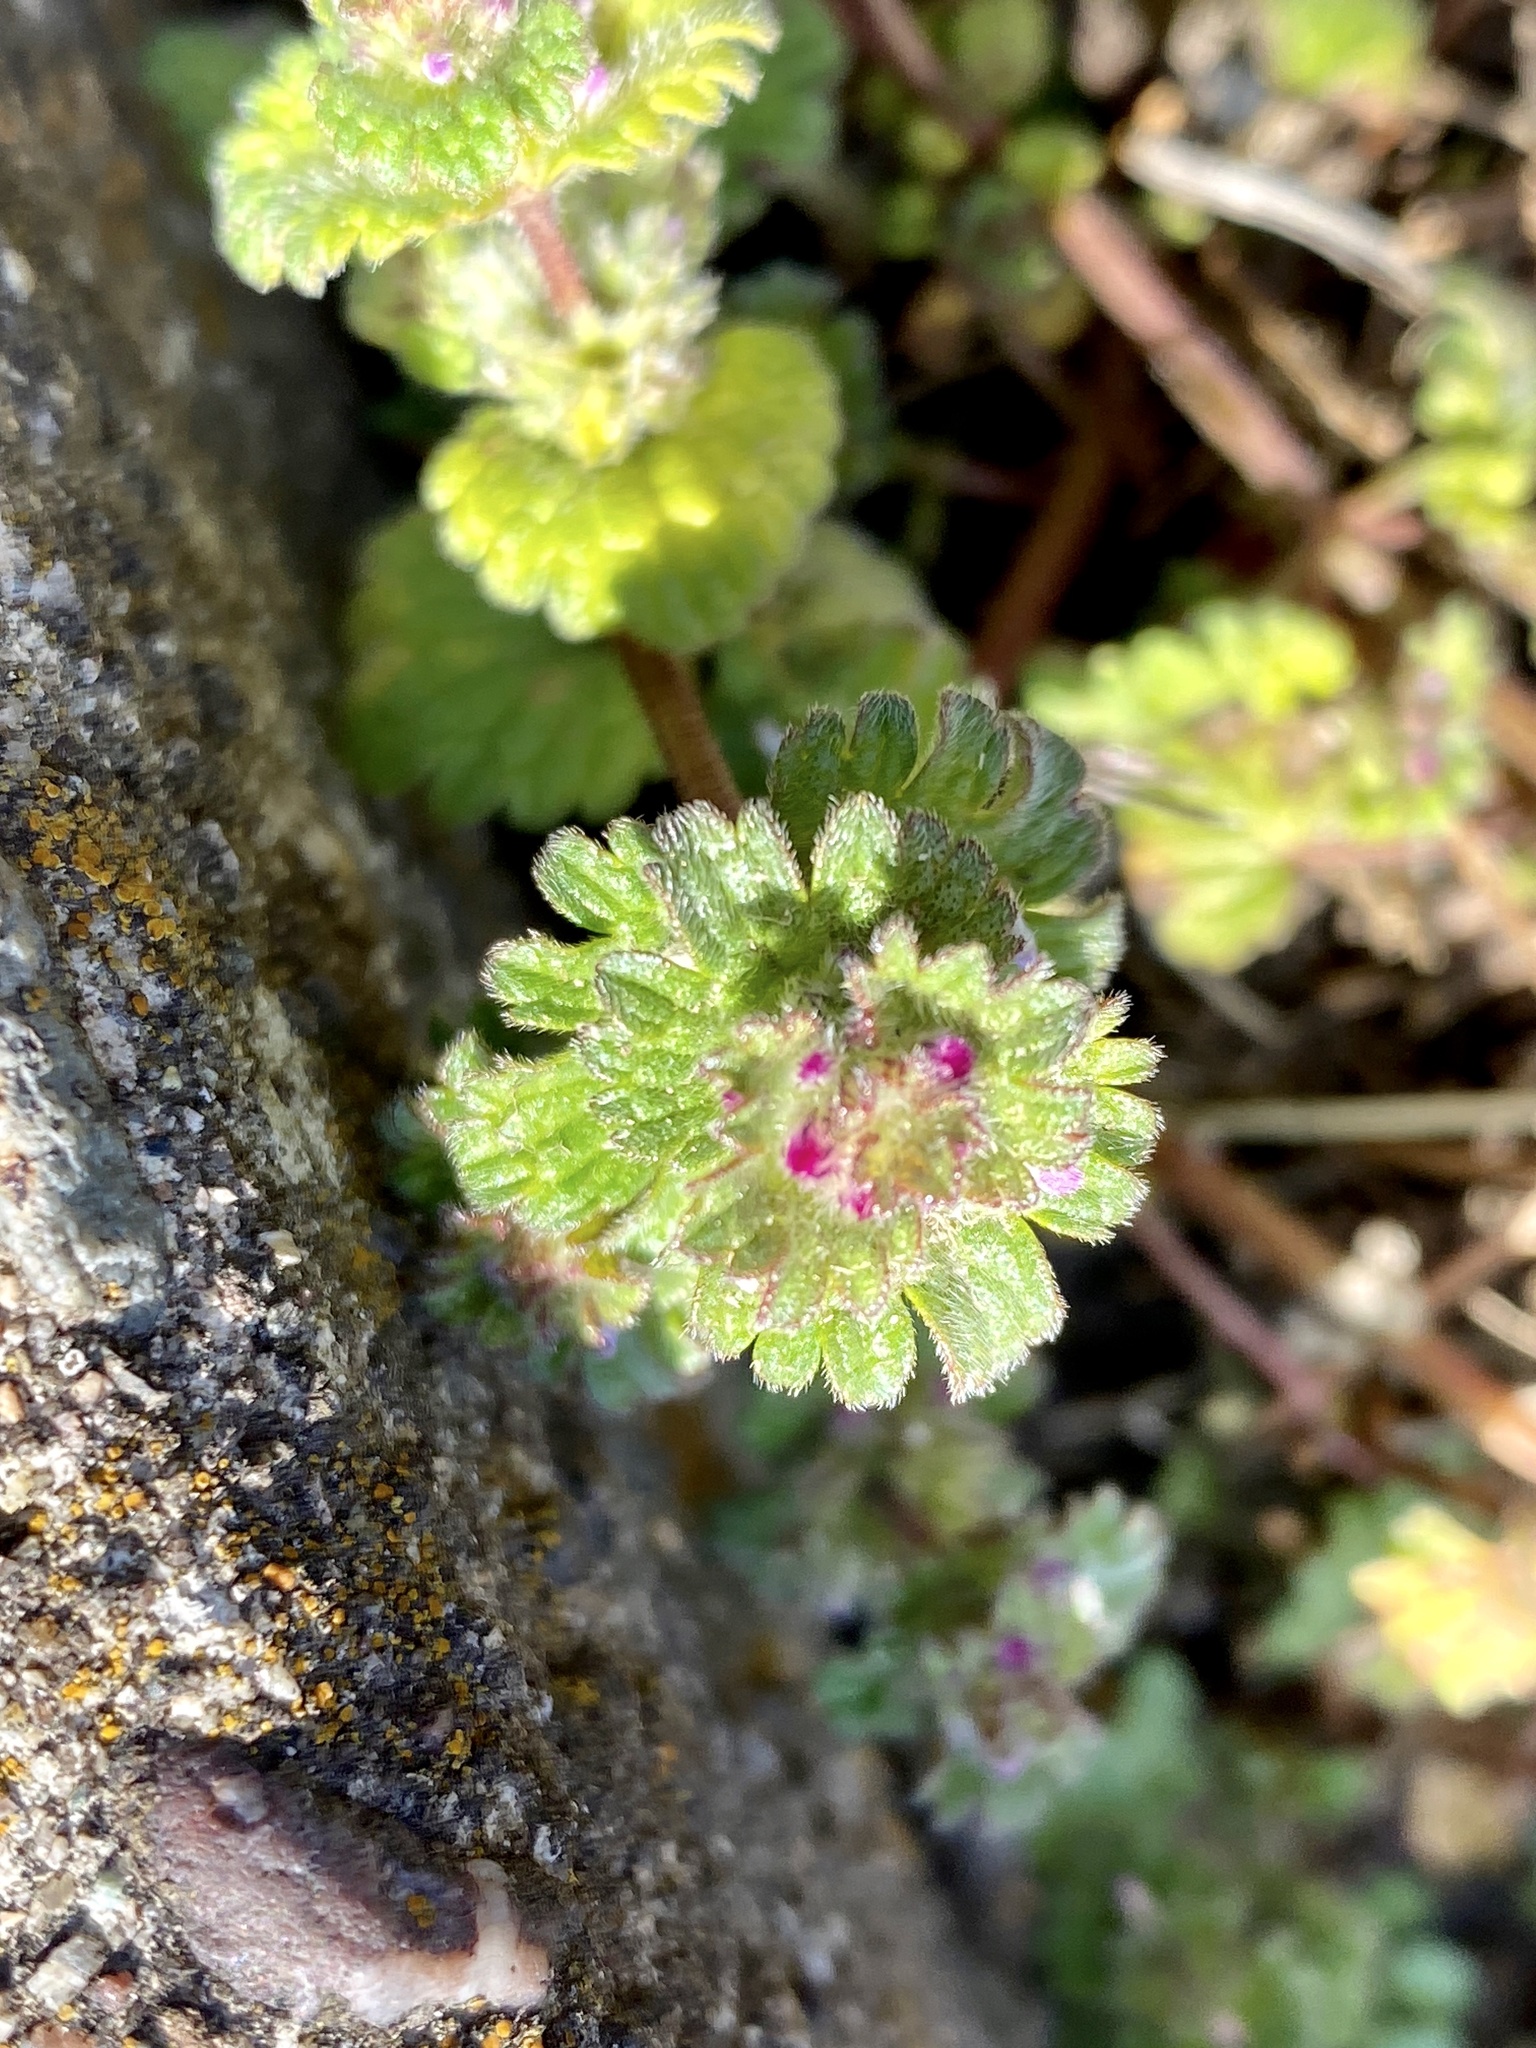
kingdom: Plantae
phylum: Tracheophyta
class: Magnoliopsida
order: Lamiales
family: Lamiaceae
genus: Lamium
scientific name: Lamium amplexicaule
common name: Henbit dead-nettle
